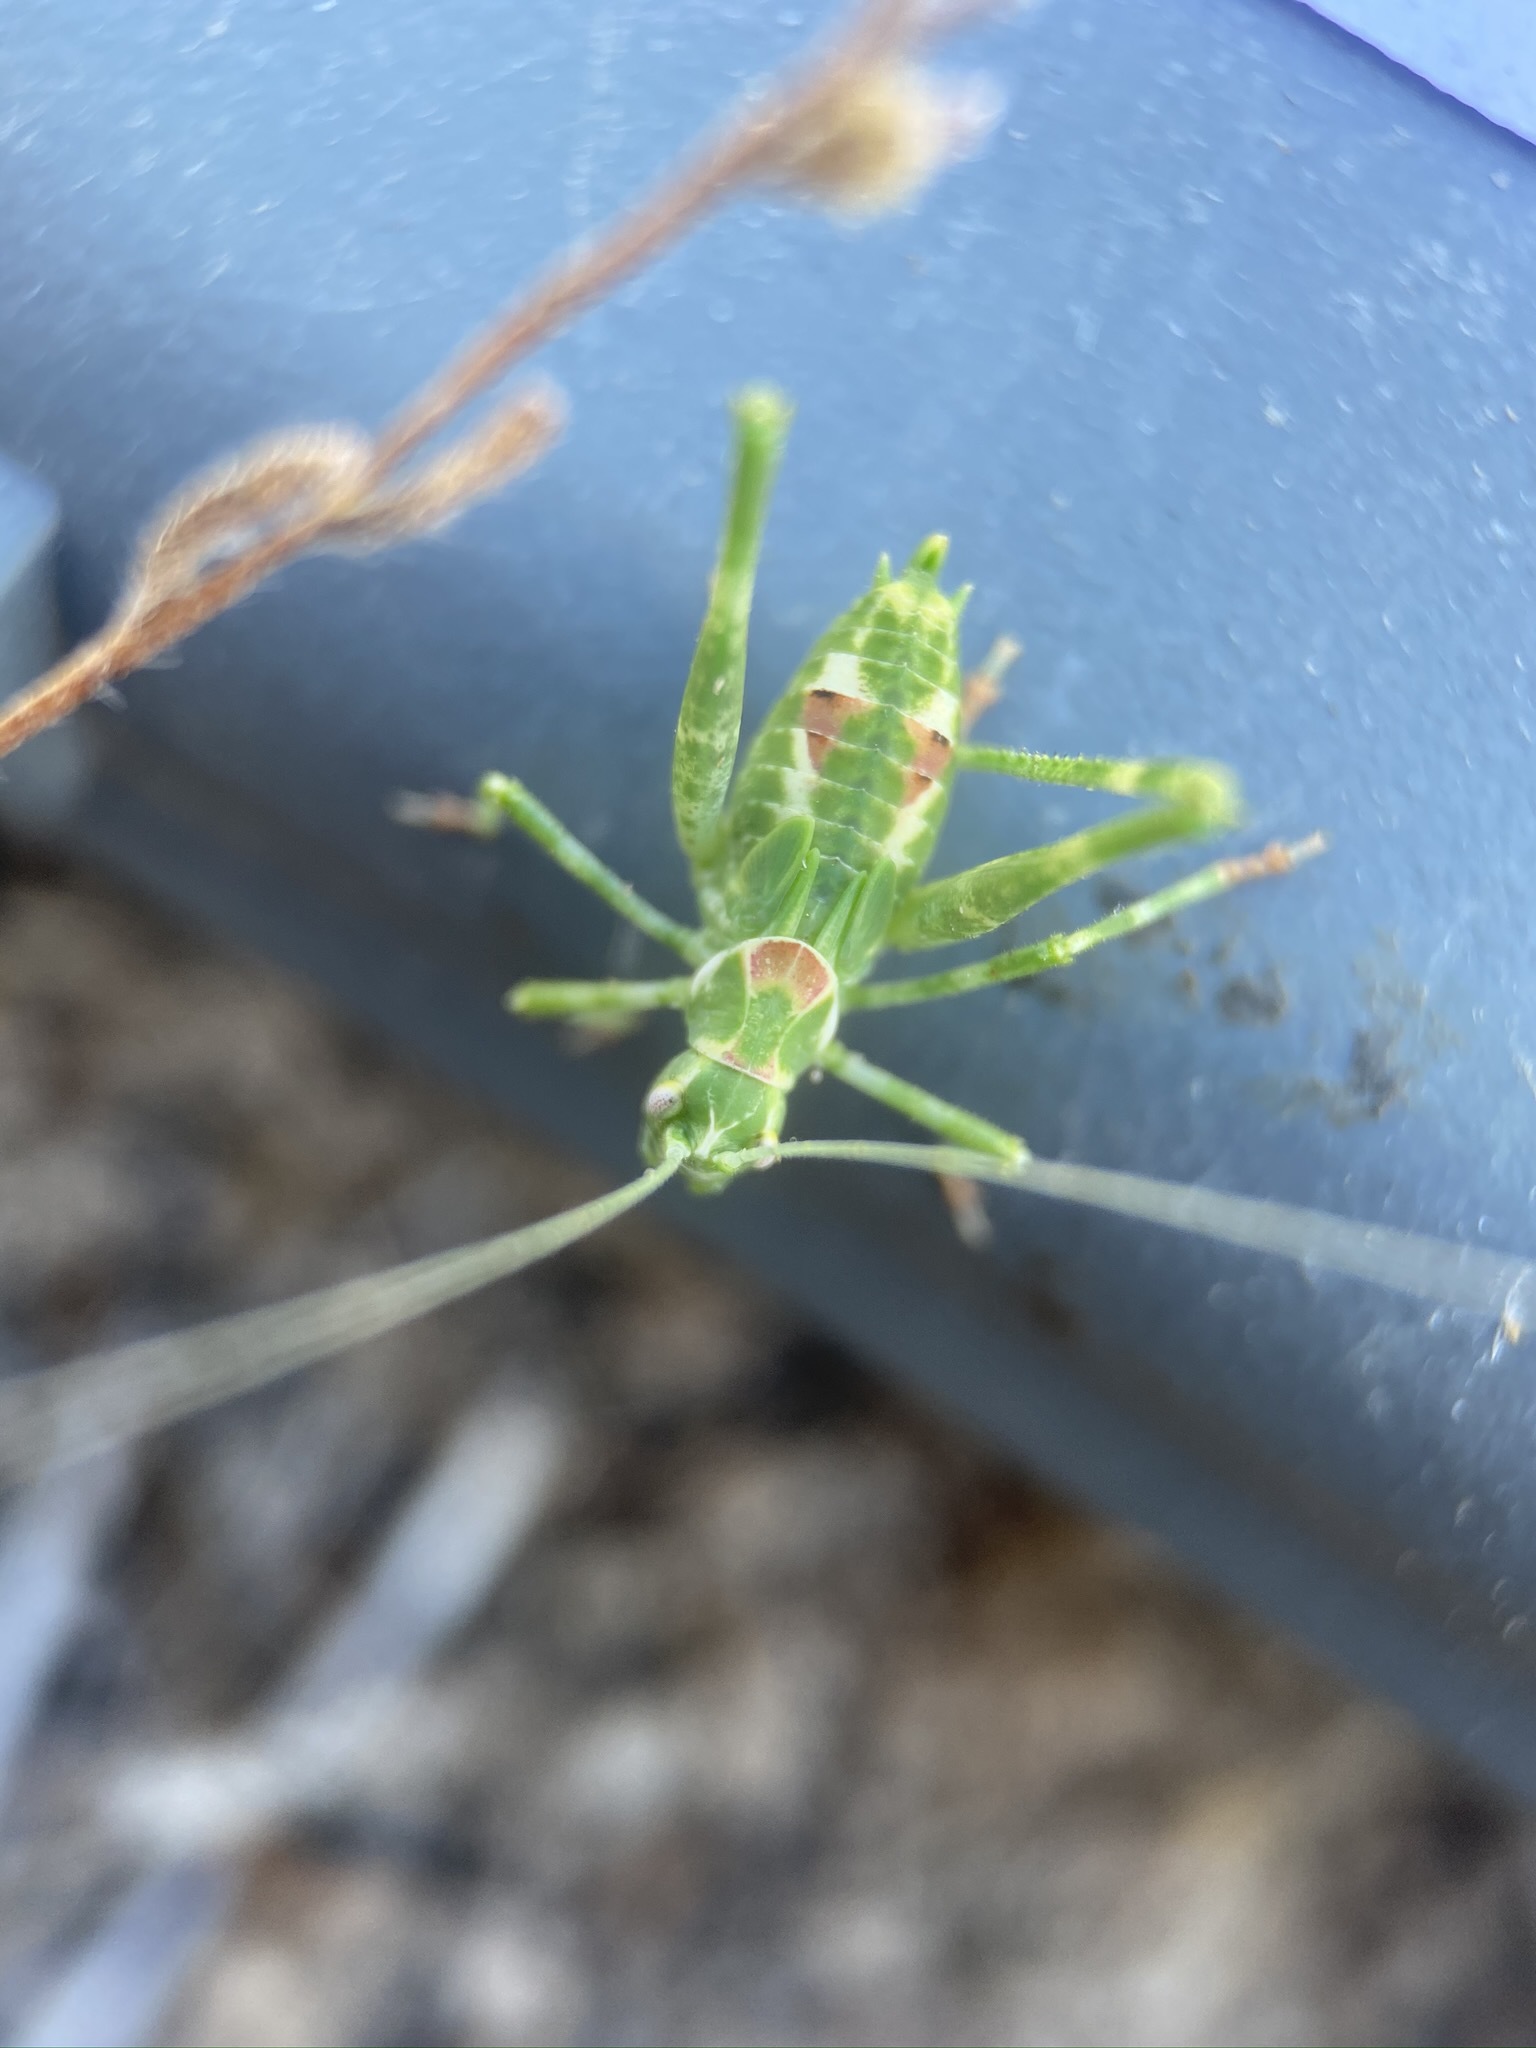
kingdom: Animalia
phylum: Arthropoda
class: Insecta
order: Orthoptera
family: Tettigoniidae
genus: Insara
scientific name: Insara tessellata
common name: Tessellate bush katydid
